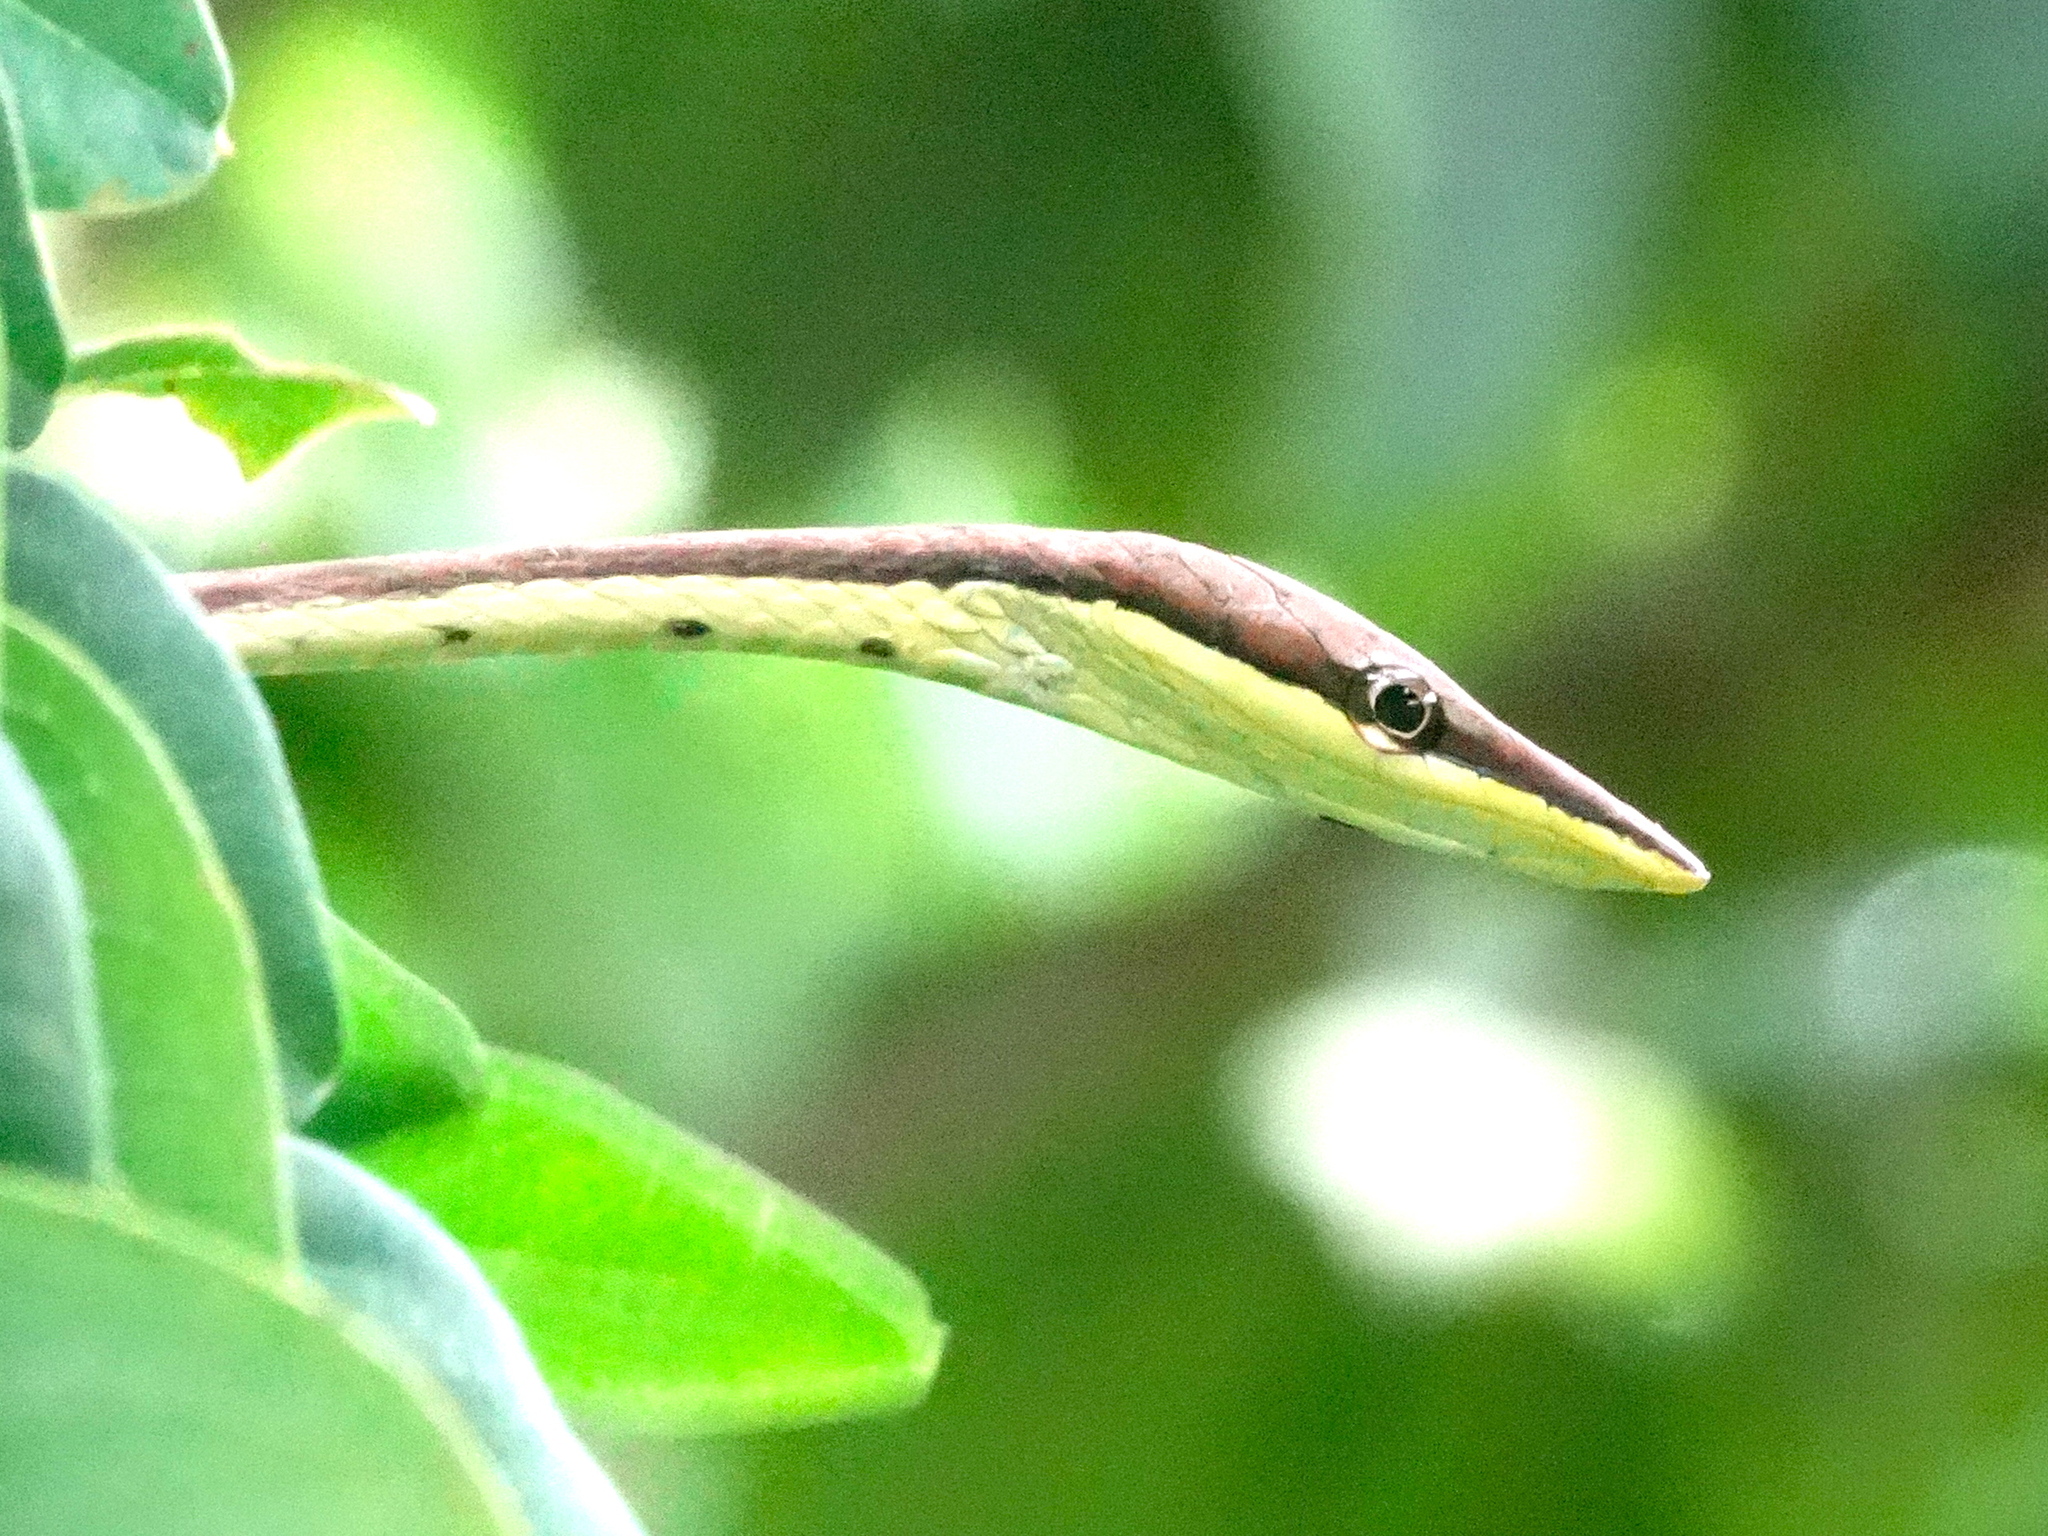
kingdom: Animalia
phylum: Chordata
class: Squamata
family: Colubridae
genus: Oxybelis
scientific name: Oxybelis microphthalmus
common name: Thrornscrub vine snake
